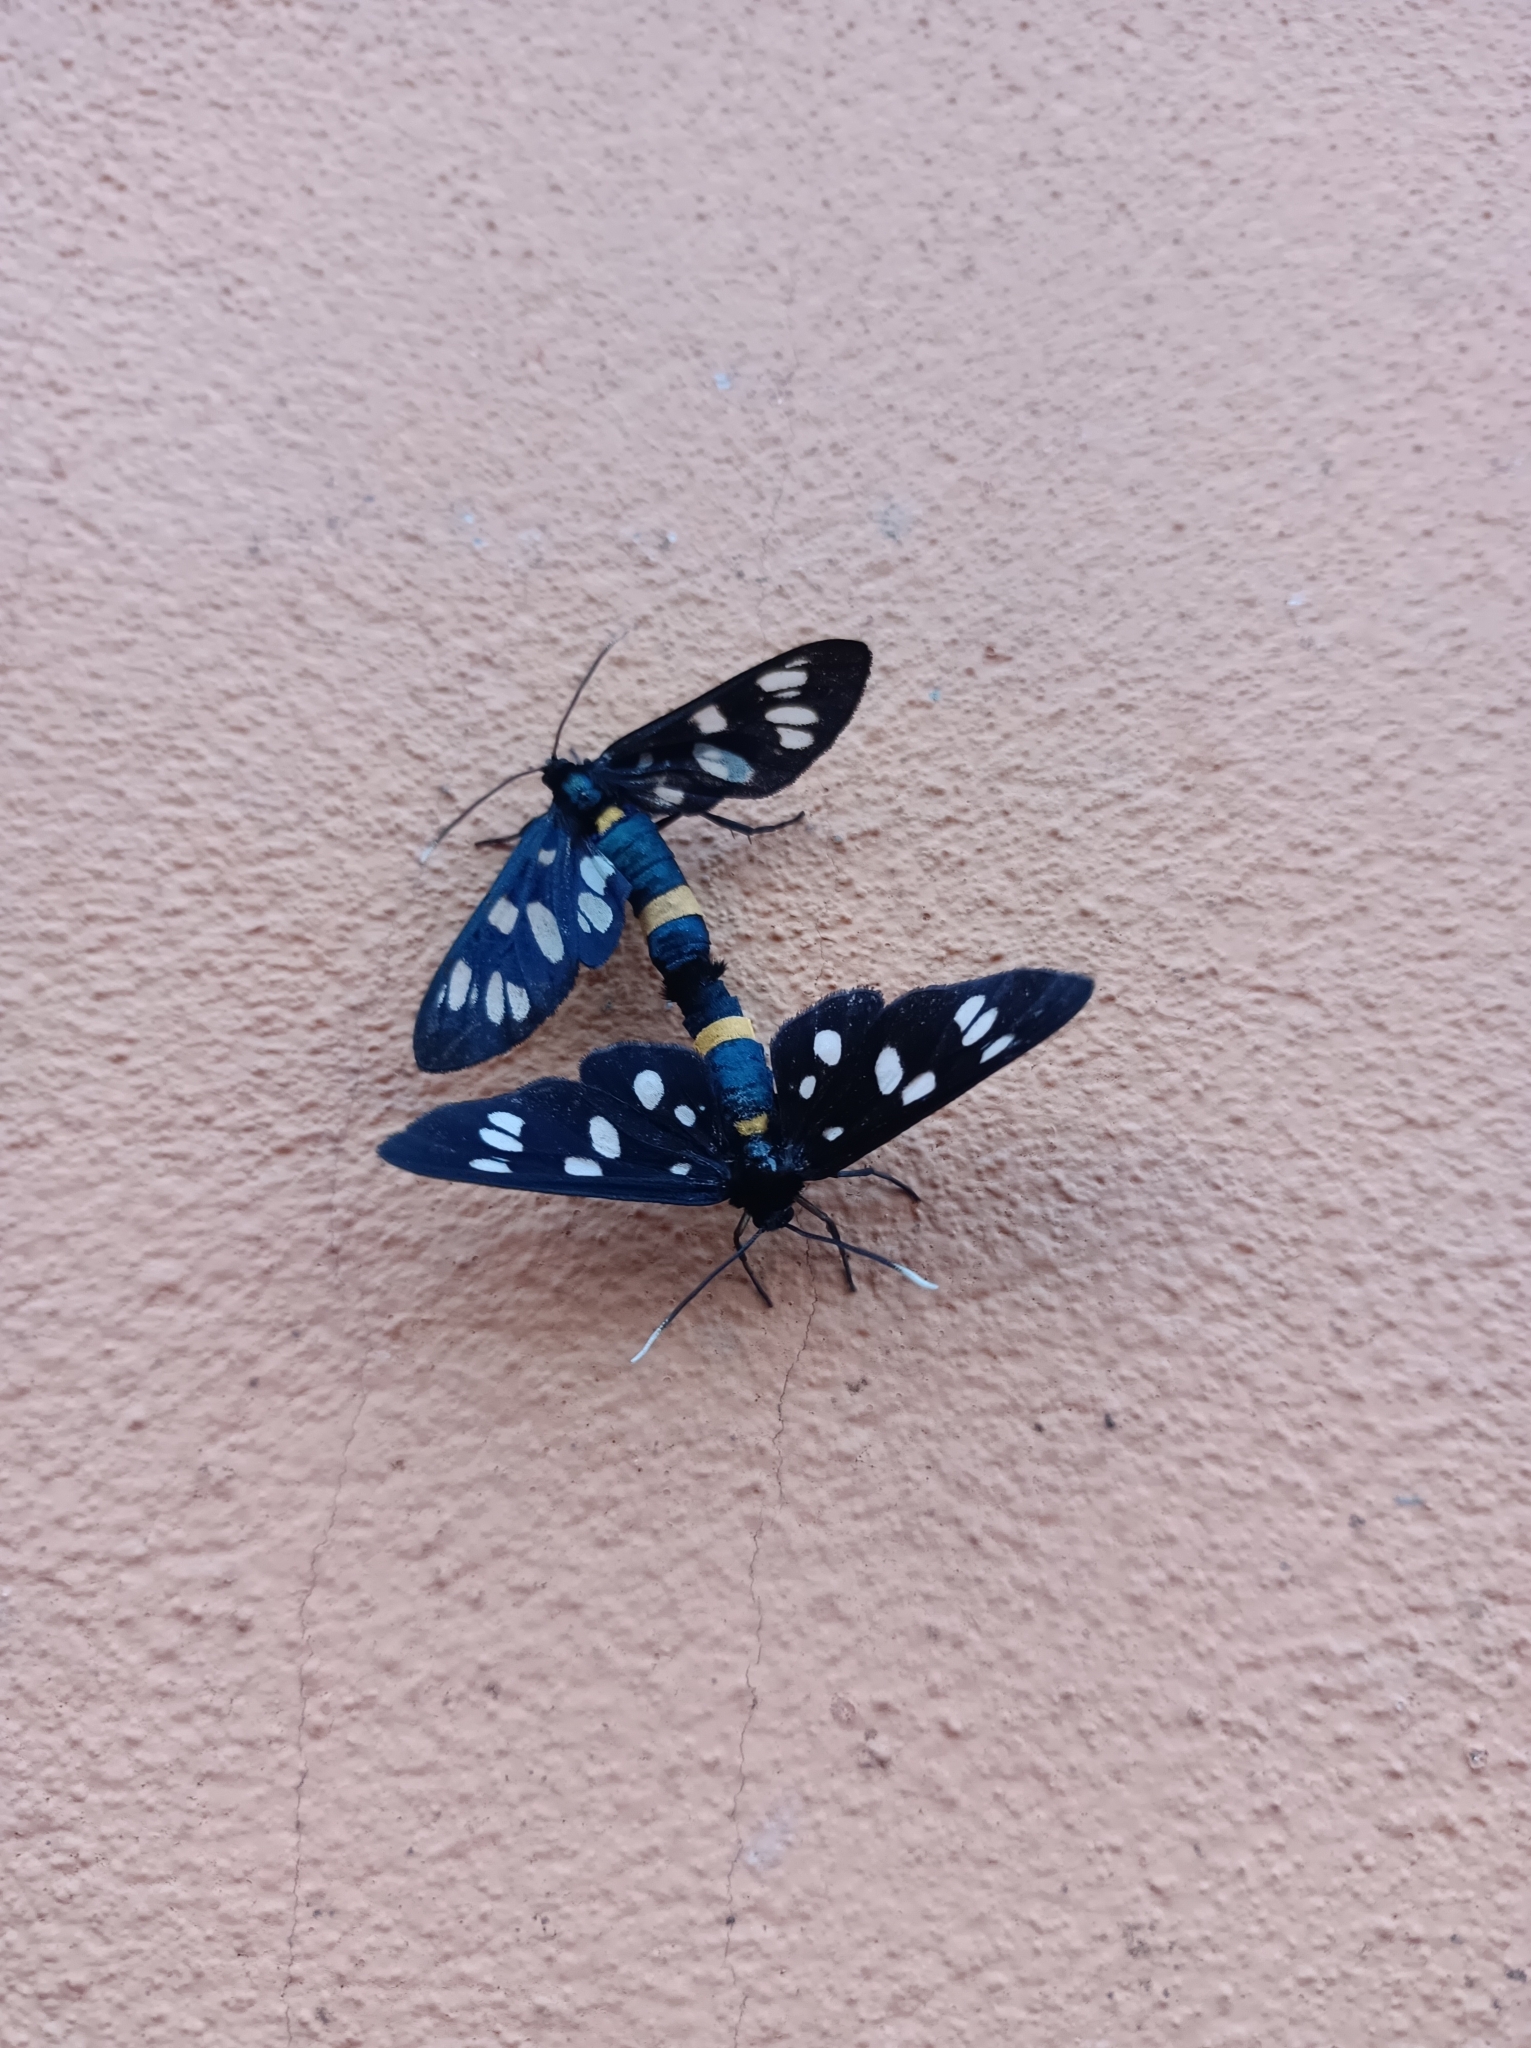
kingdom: Animalia
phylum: Arthropoda
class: Insecta
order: Lepidoptera
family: Erebidae
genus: Amata
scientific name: Amata phegea
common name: Nine-spotted
